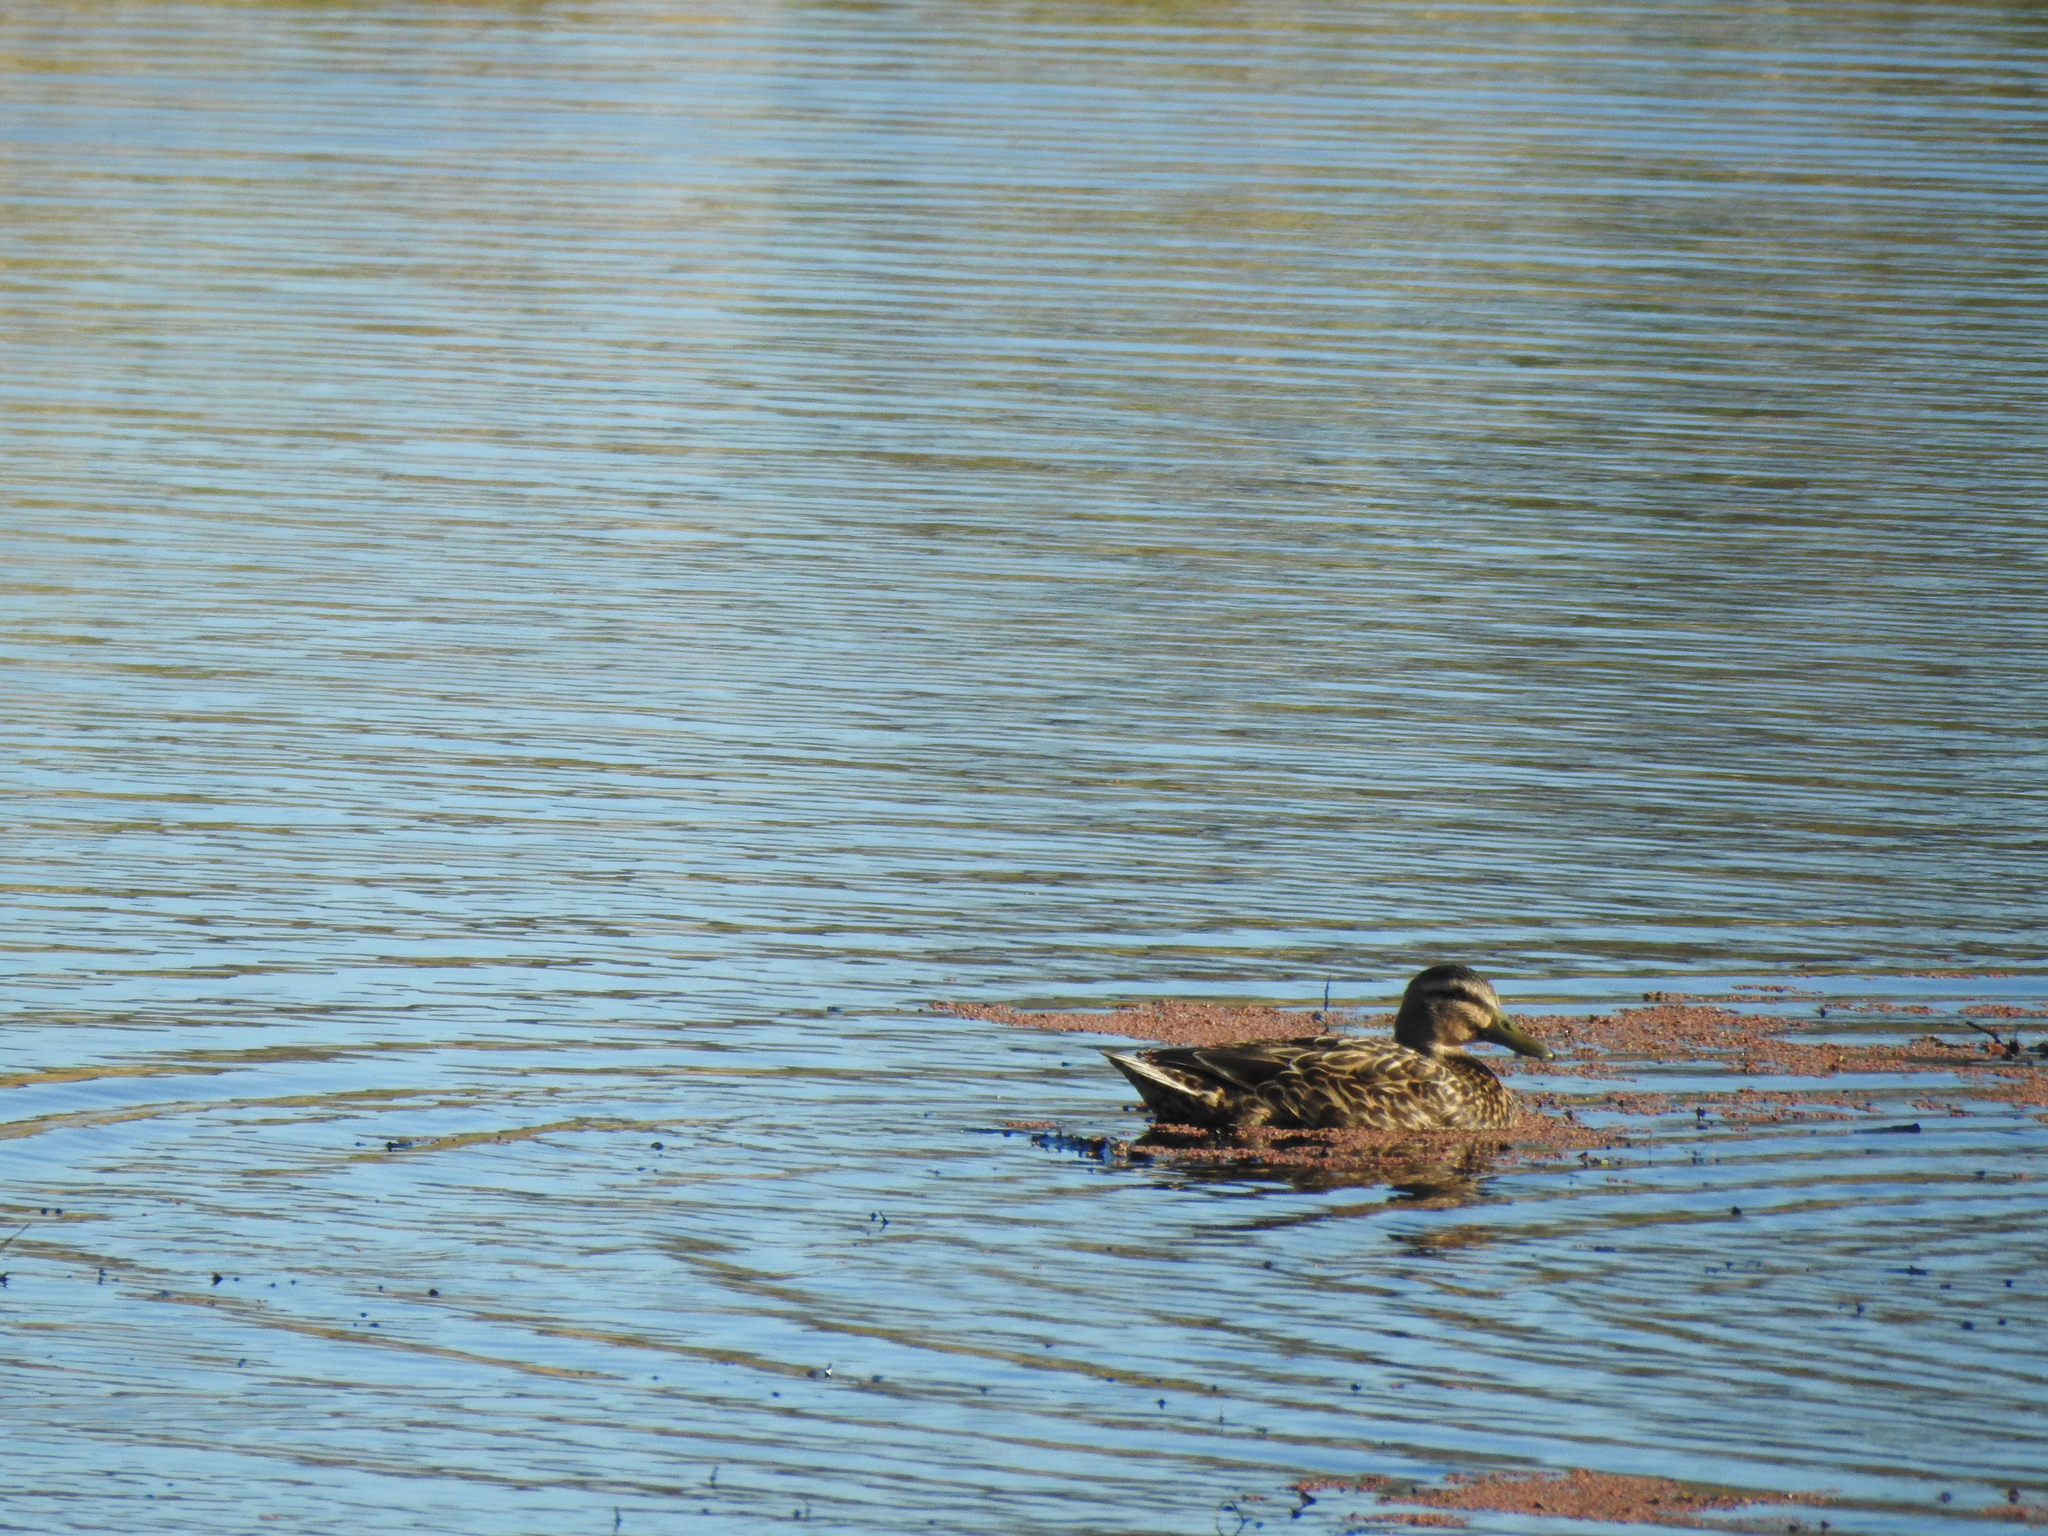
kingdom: Animalia
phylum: Chordata
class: Aves
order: Anseriformes
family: Anatidae
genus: Anas
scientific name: Anas
